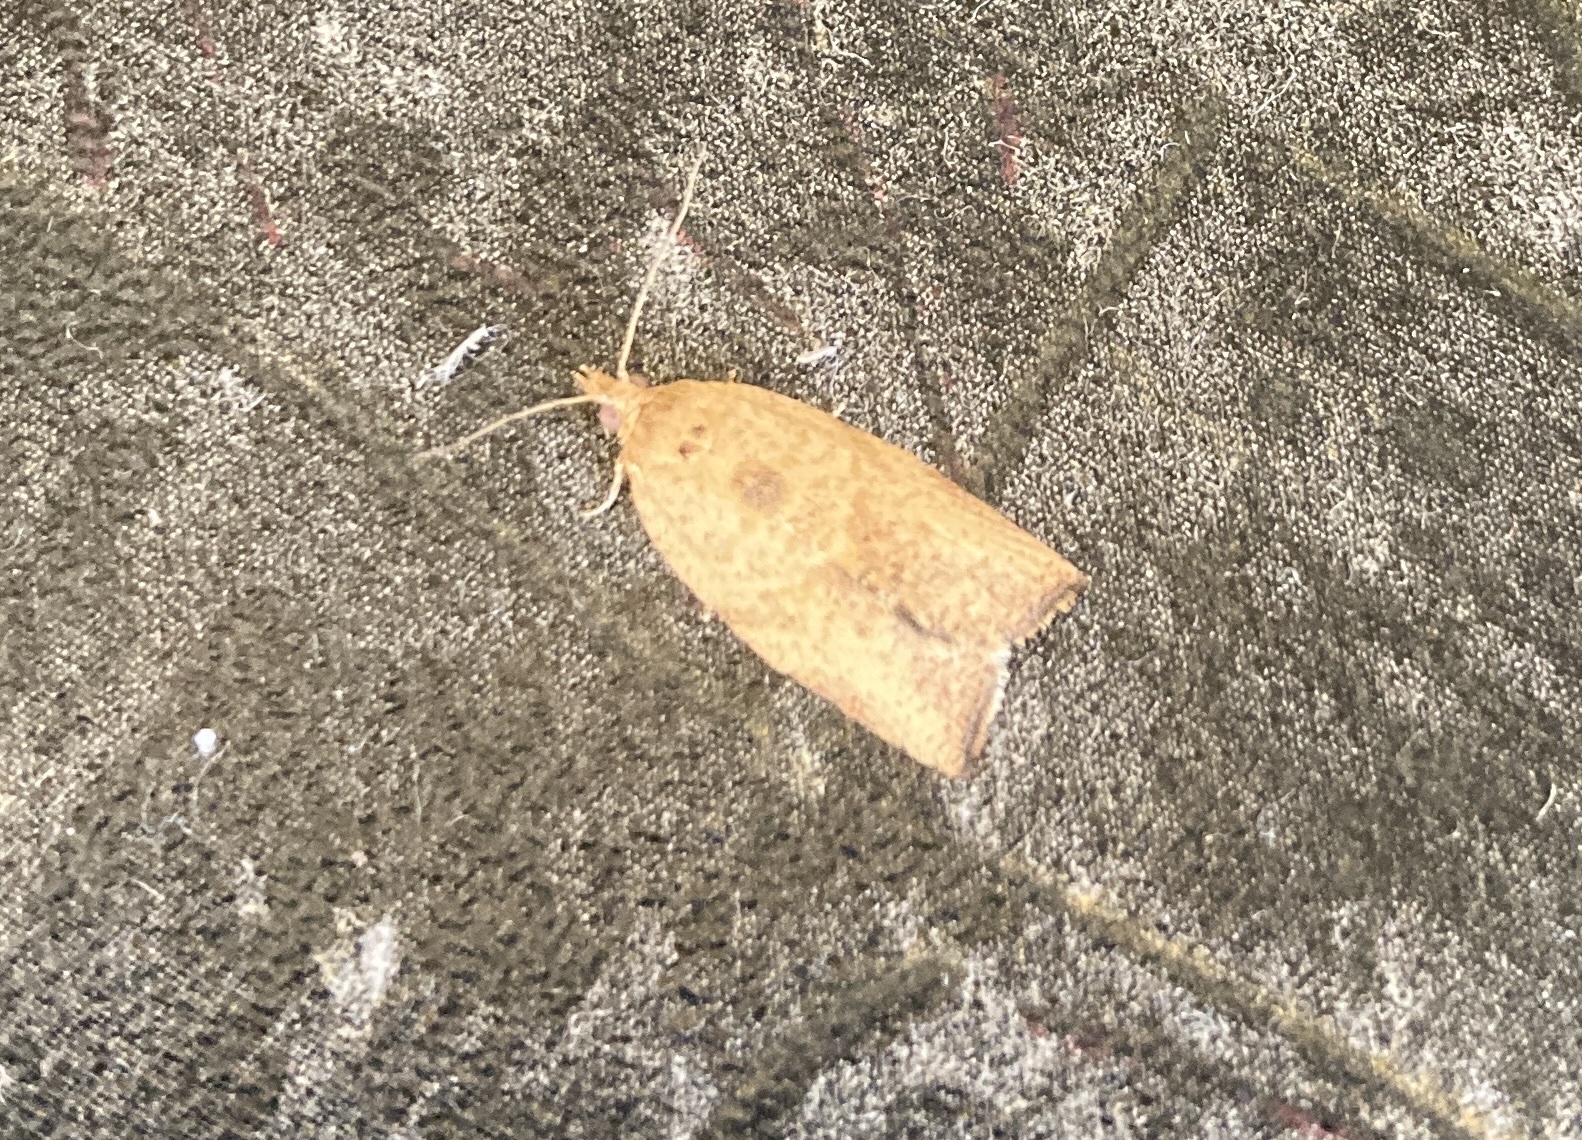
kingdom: Animalia
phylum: Arthropoda
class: Insecta
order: Lepidoptera
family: Tortricidae
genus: Epiphyas
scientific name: Epiphyas postvittana
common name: Light brown apple moth
